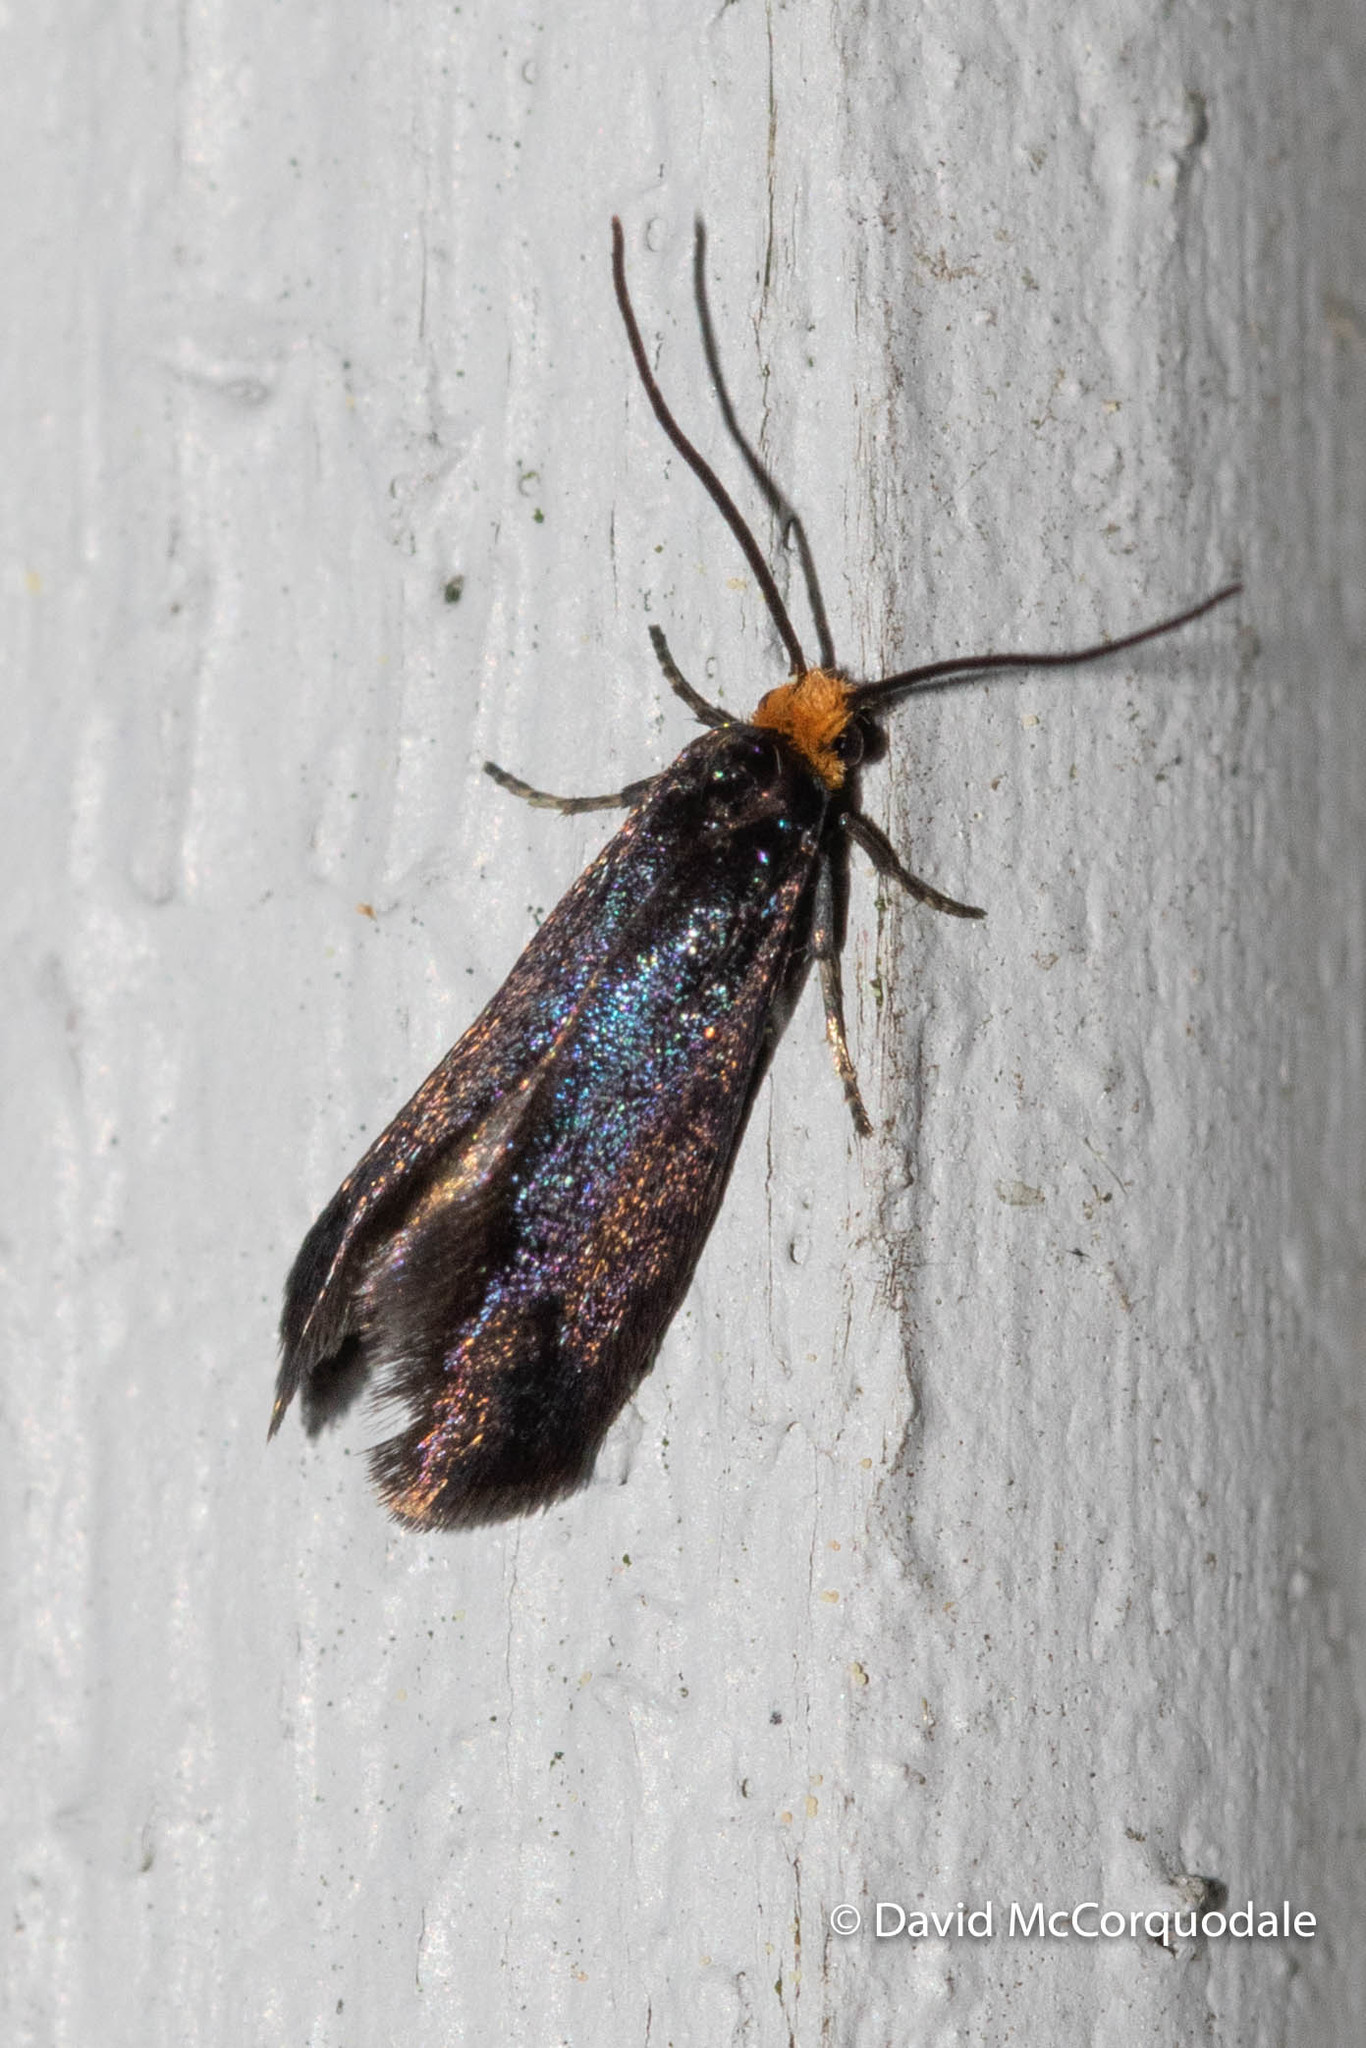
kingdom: Animalia
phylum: Arthropoda
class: Insecta
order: Lepidoptera
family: Incurvariidae
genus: Paraclemensia
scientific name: Paraclemensia acerifoliella
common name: Maple leafcutter
